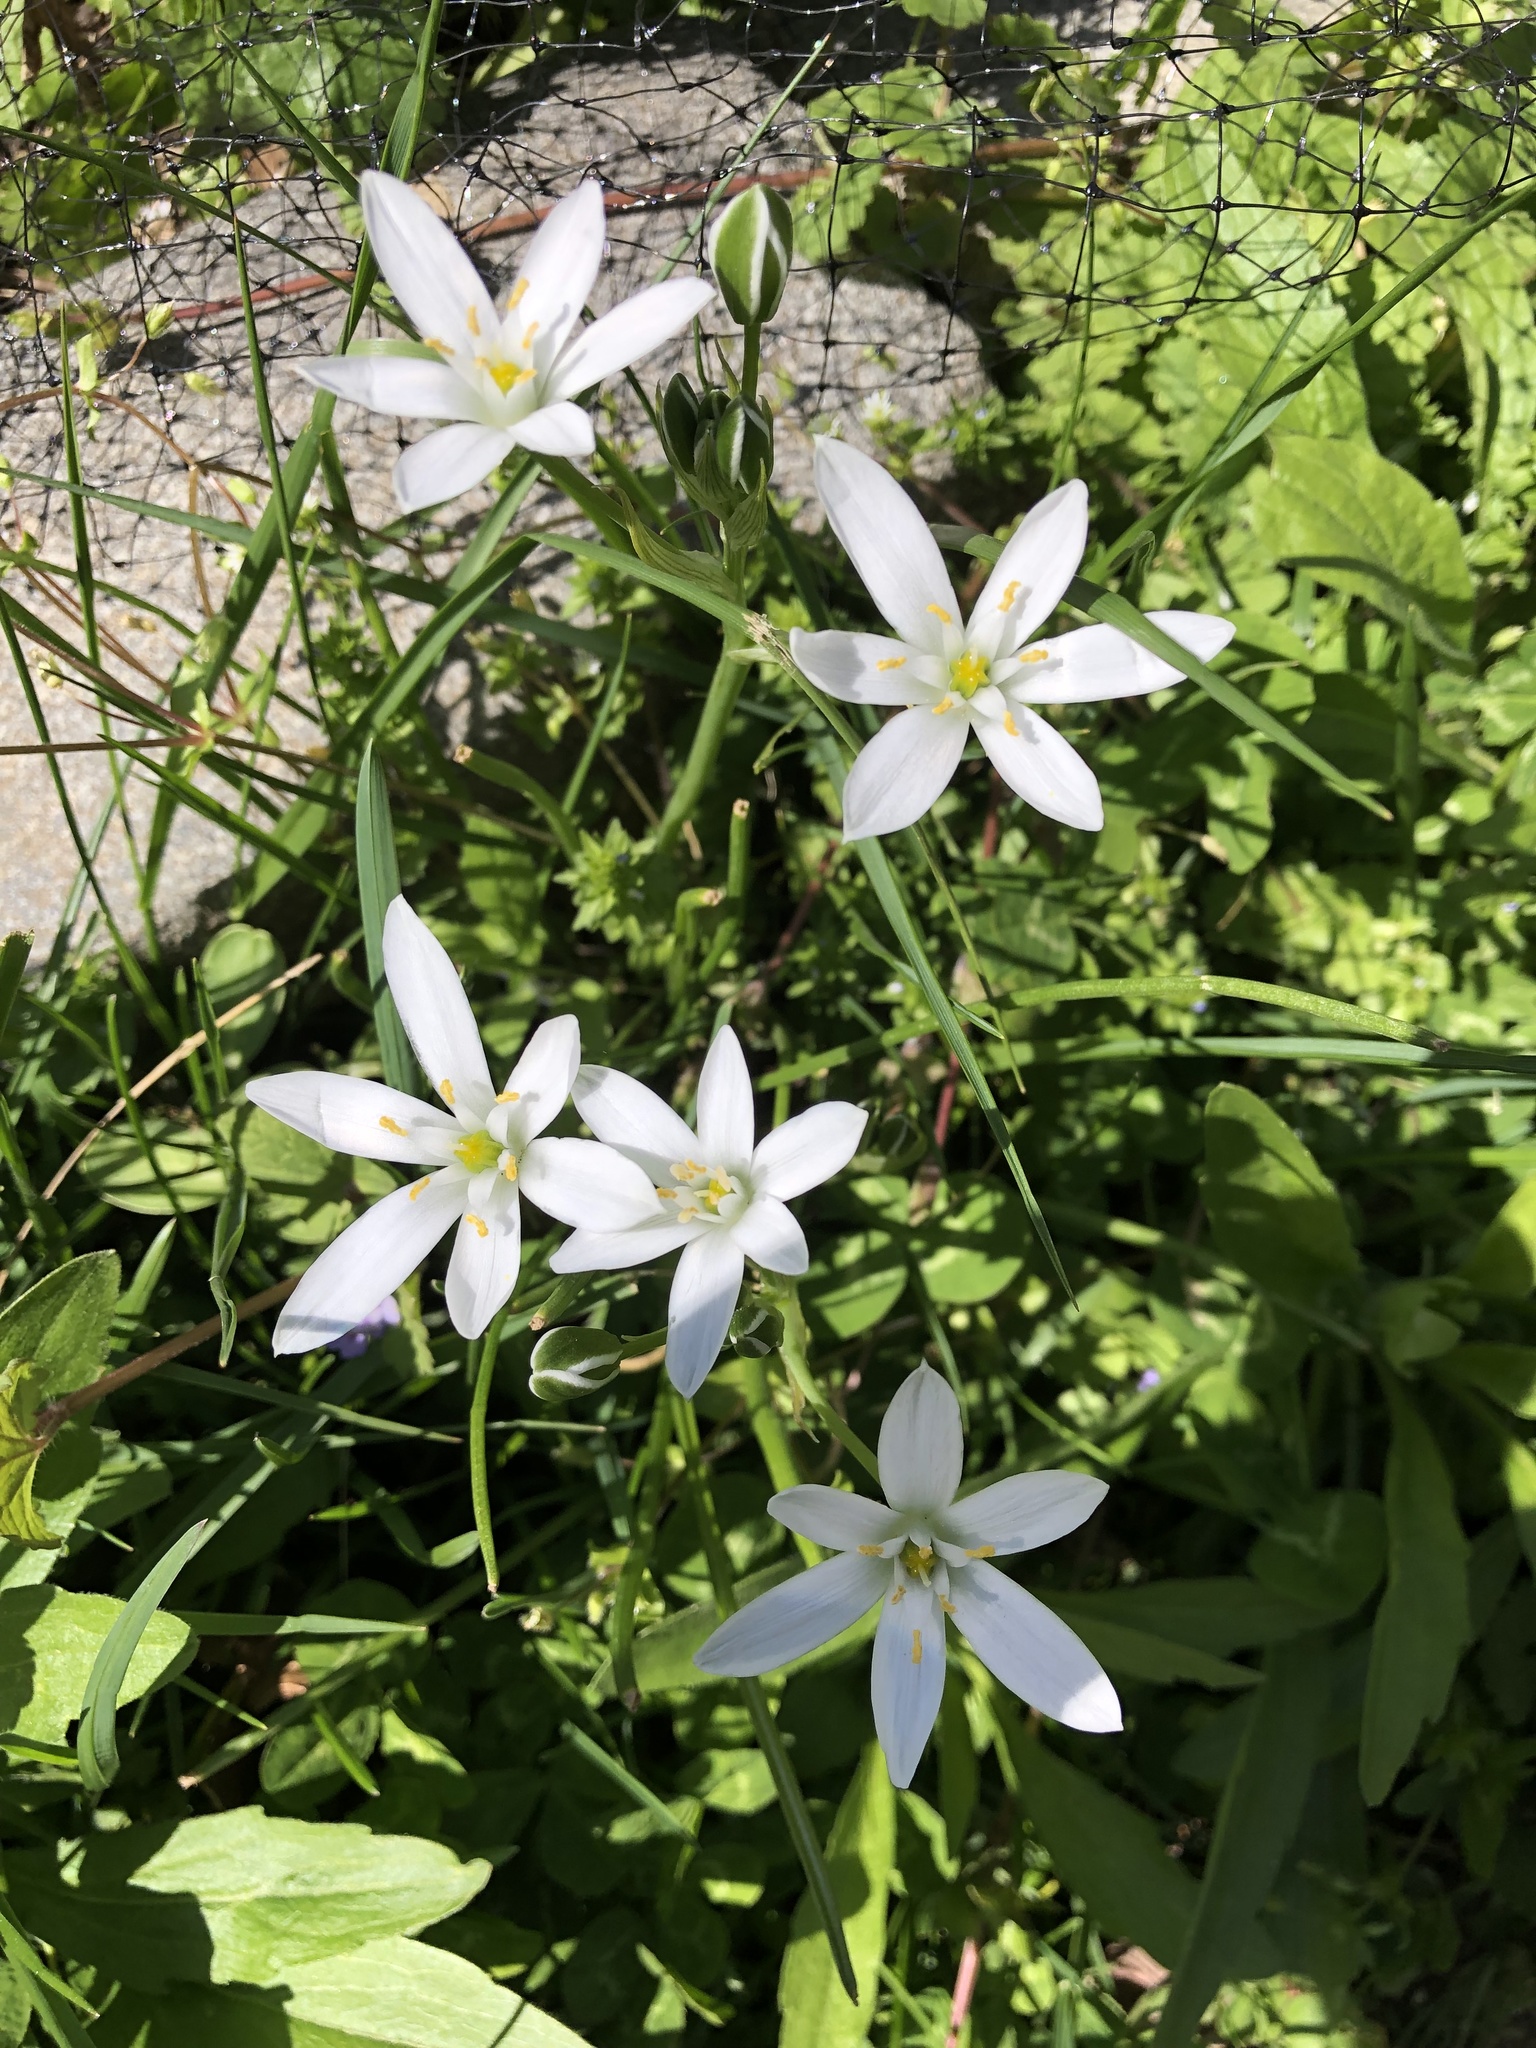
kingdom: Plantae
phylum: Tracheophyta
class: Liliopsida
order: Asparagales
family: Asparagaceae
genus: Ornithogalum
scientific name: Ornithogalum umbellatum
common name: Garden star-of-bethlehem
